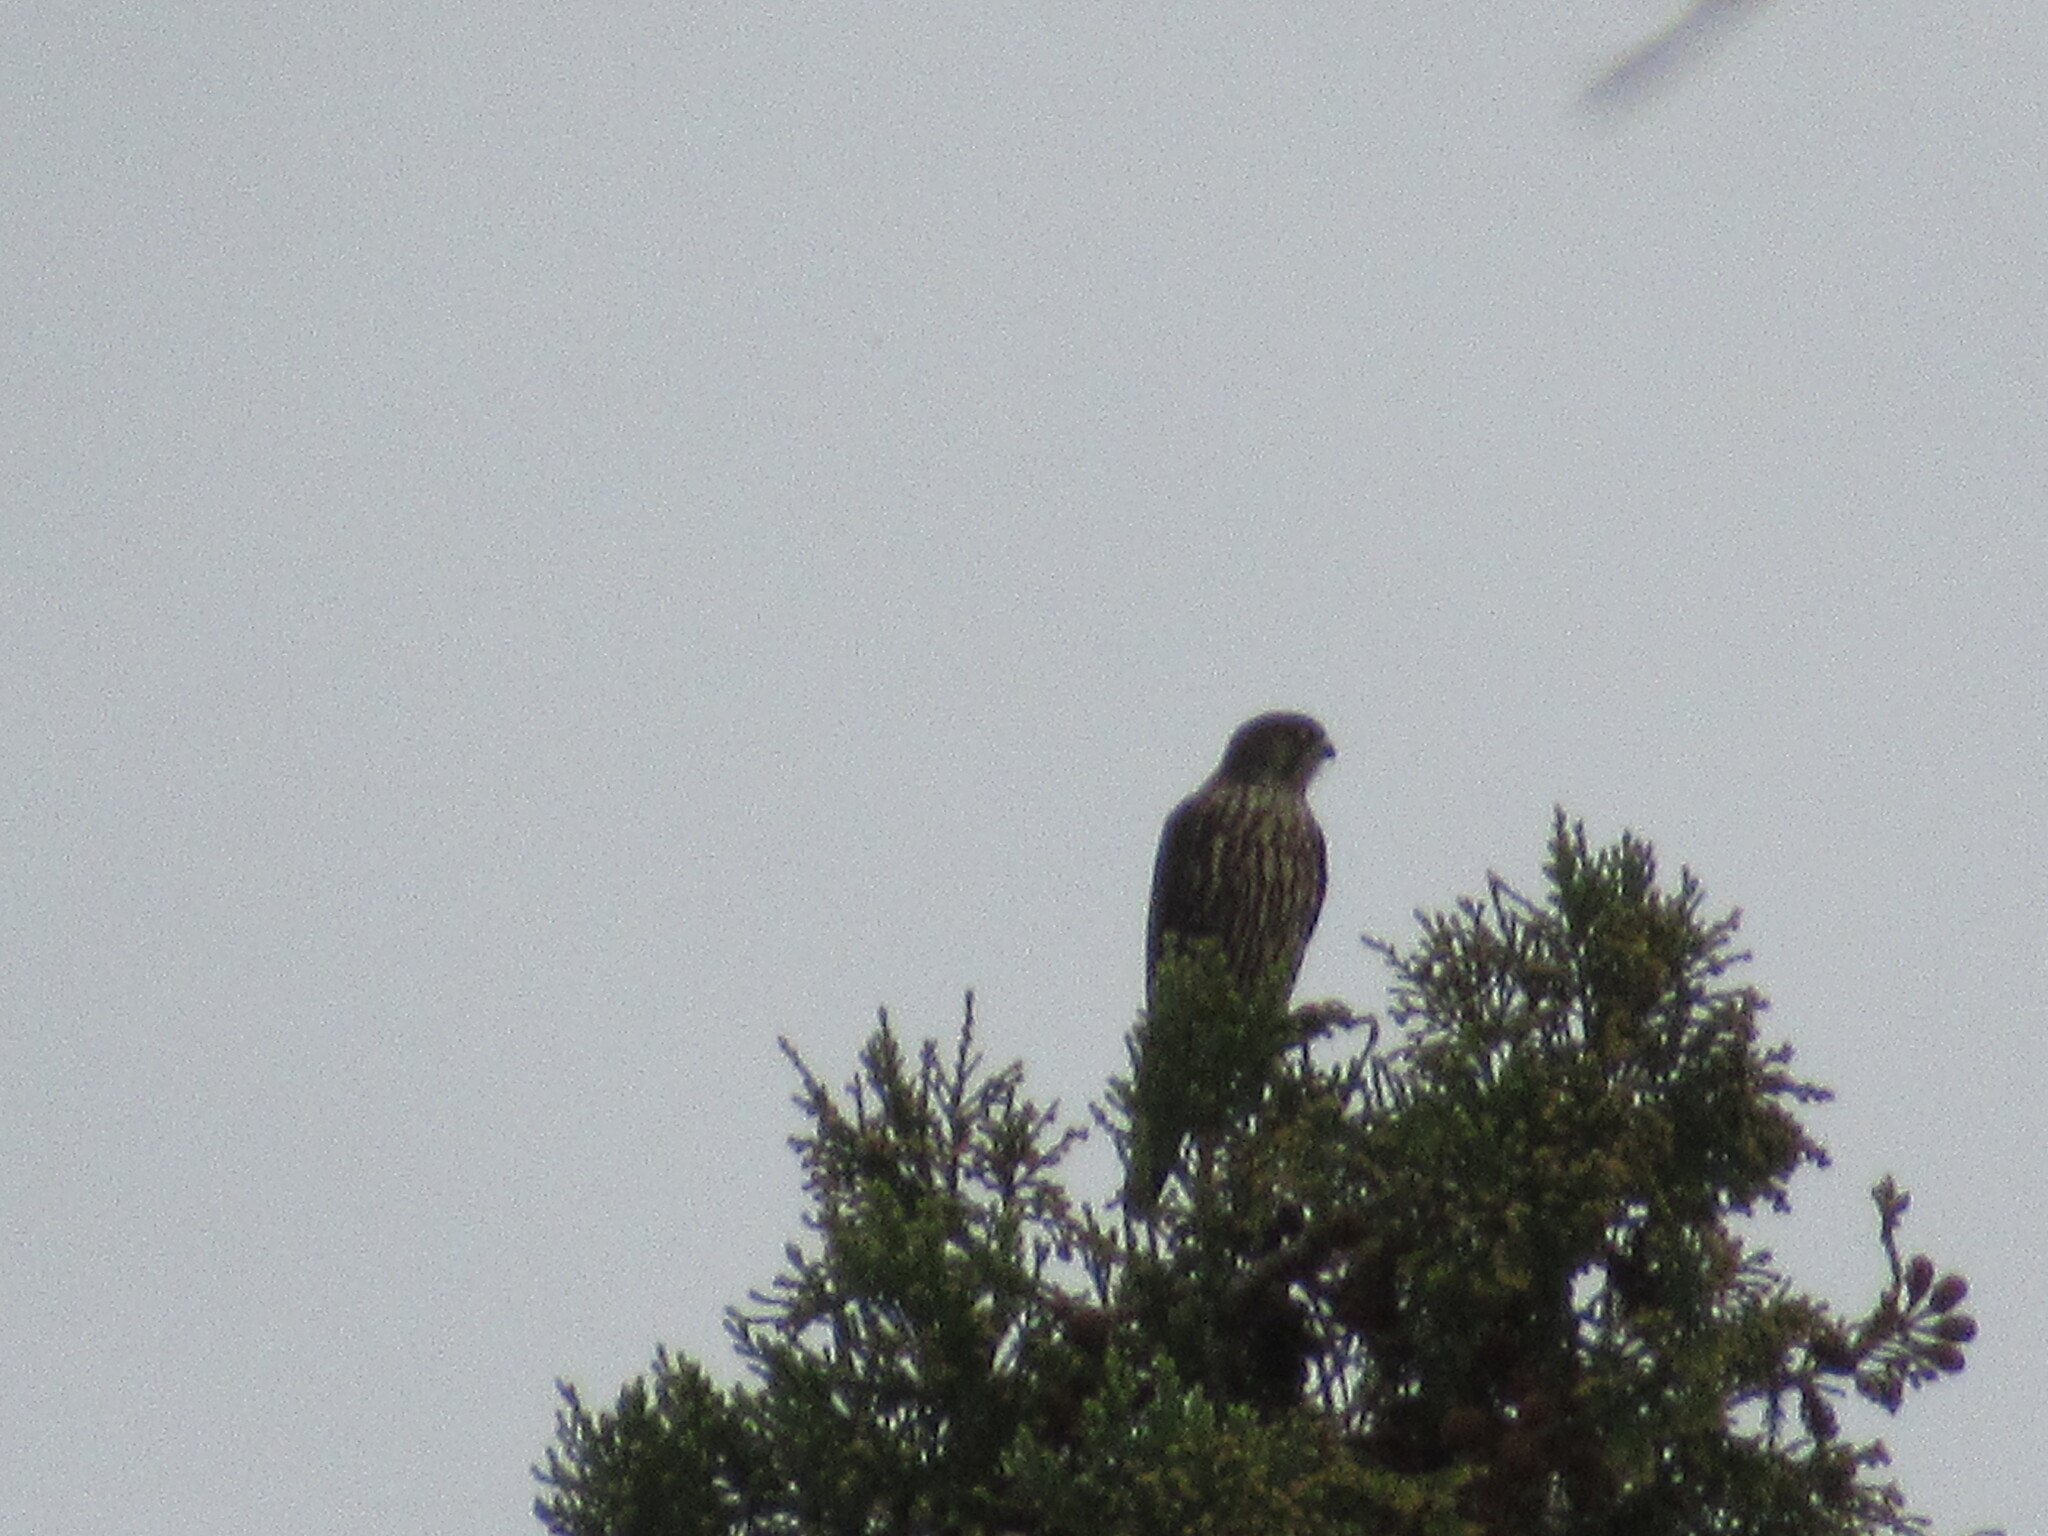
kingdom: Animalia
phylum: Chordata
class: Aves
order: Falconiformes
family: Falconidae
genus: Falco
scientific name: Falco columbarius
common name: Merlin
